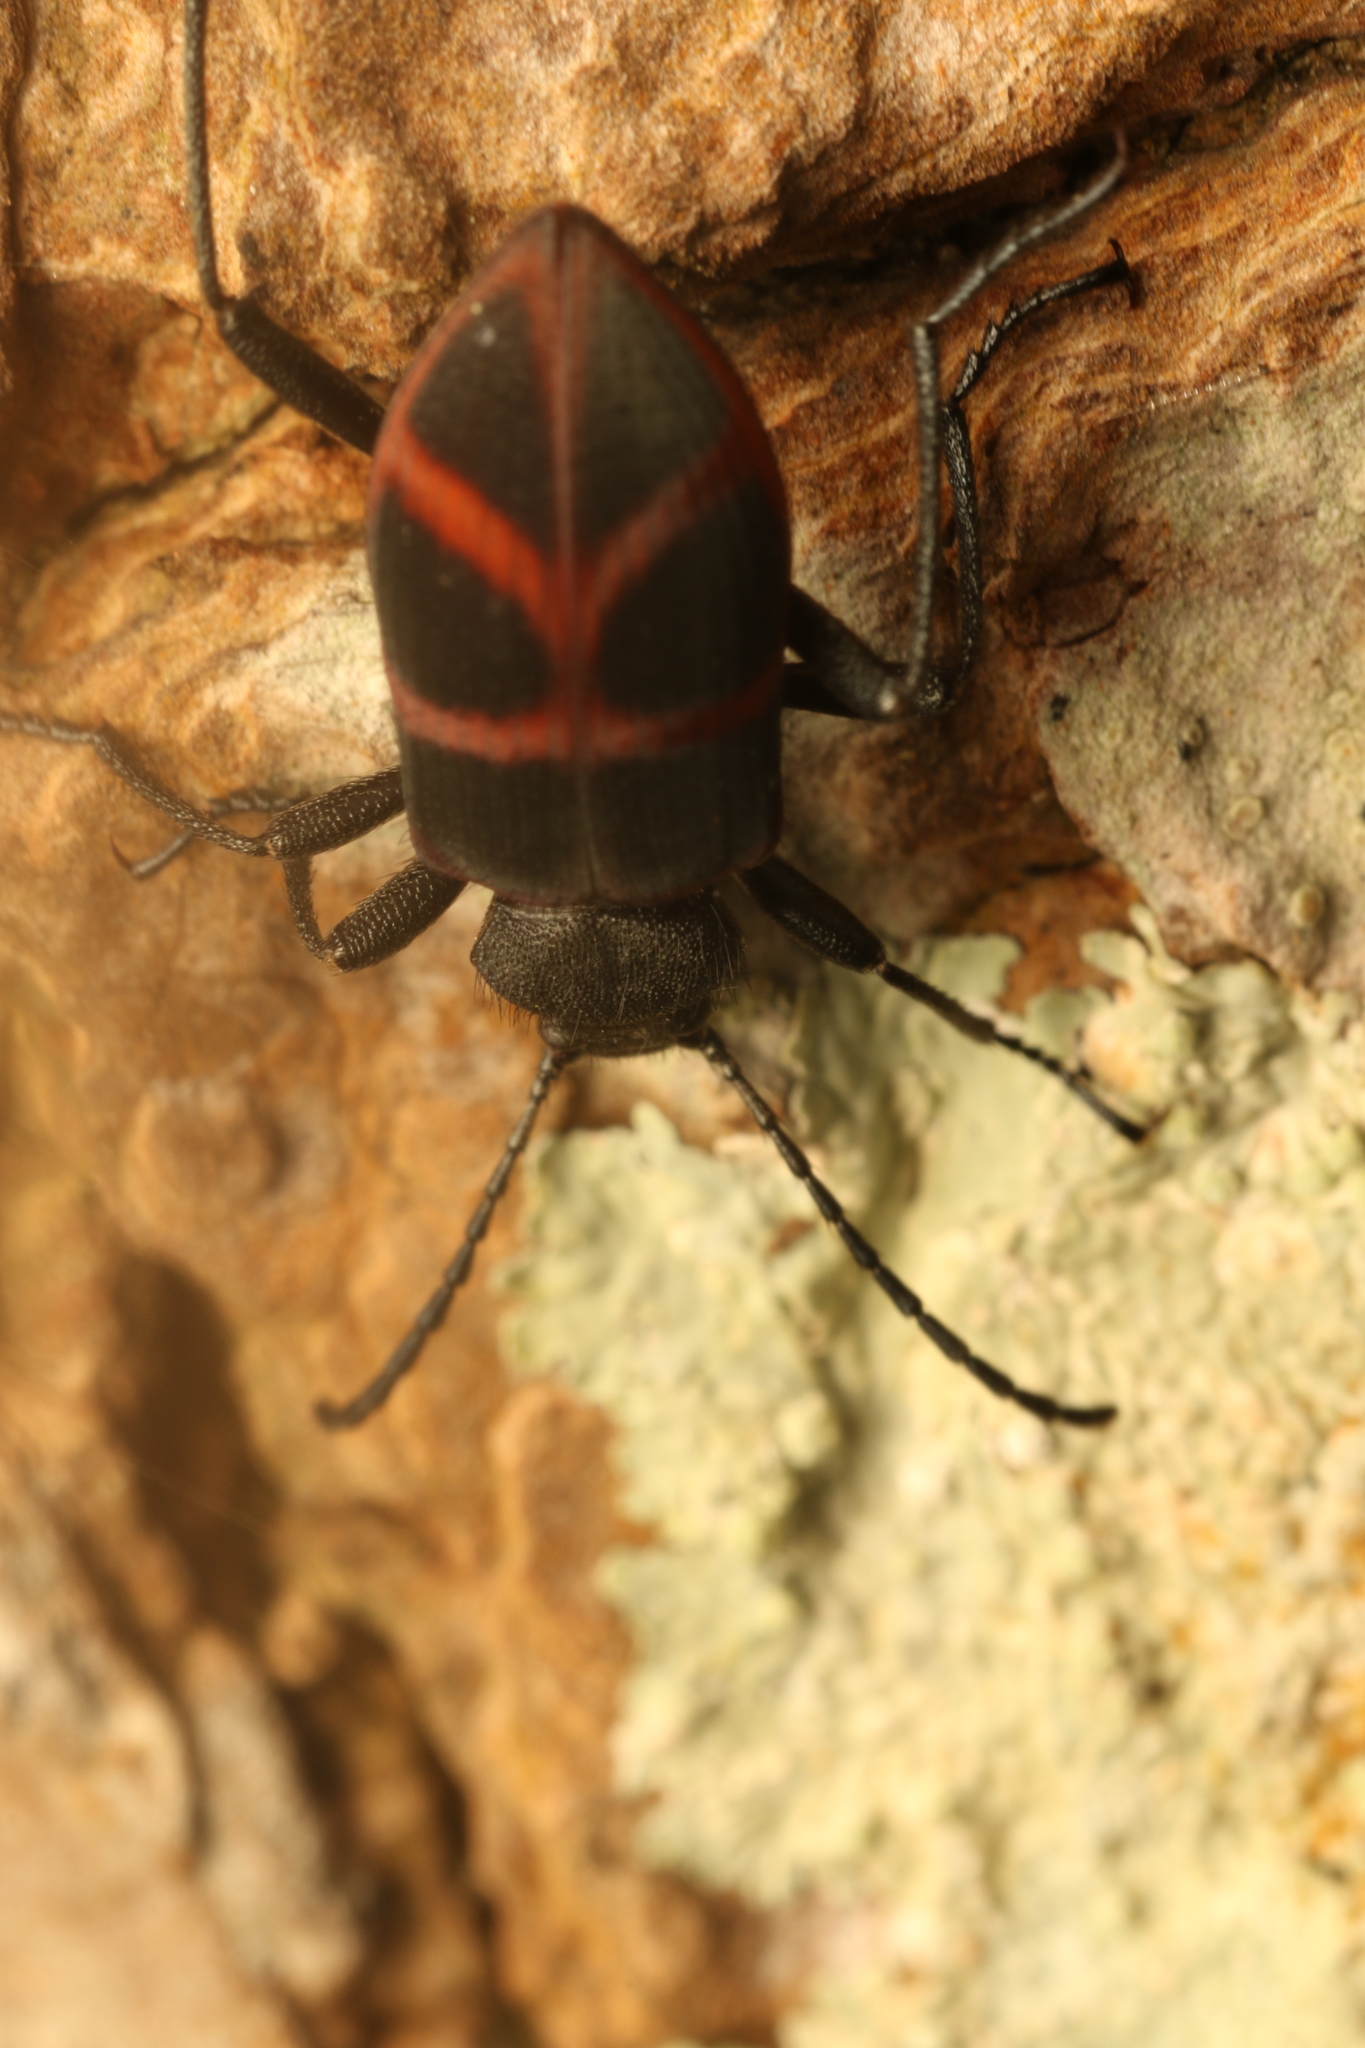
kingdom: Animalia
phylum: Arthropoda
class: Insecta
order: Coleoptera
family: Tenebrionidae
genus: Lystronychus
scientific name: Lystronychus
